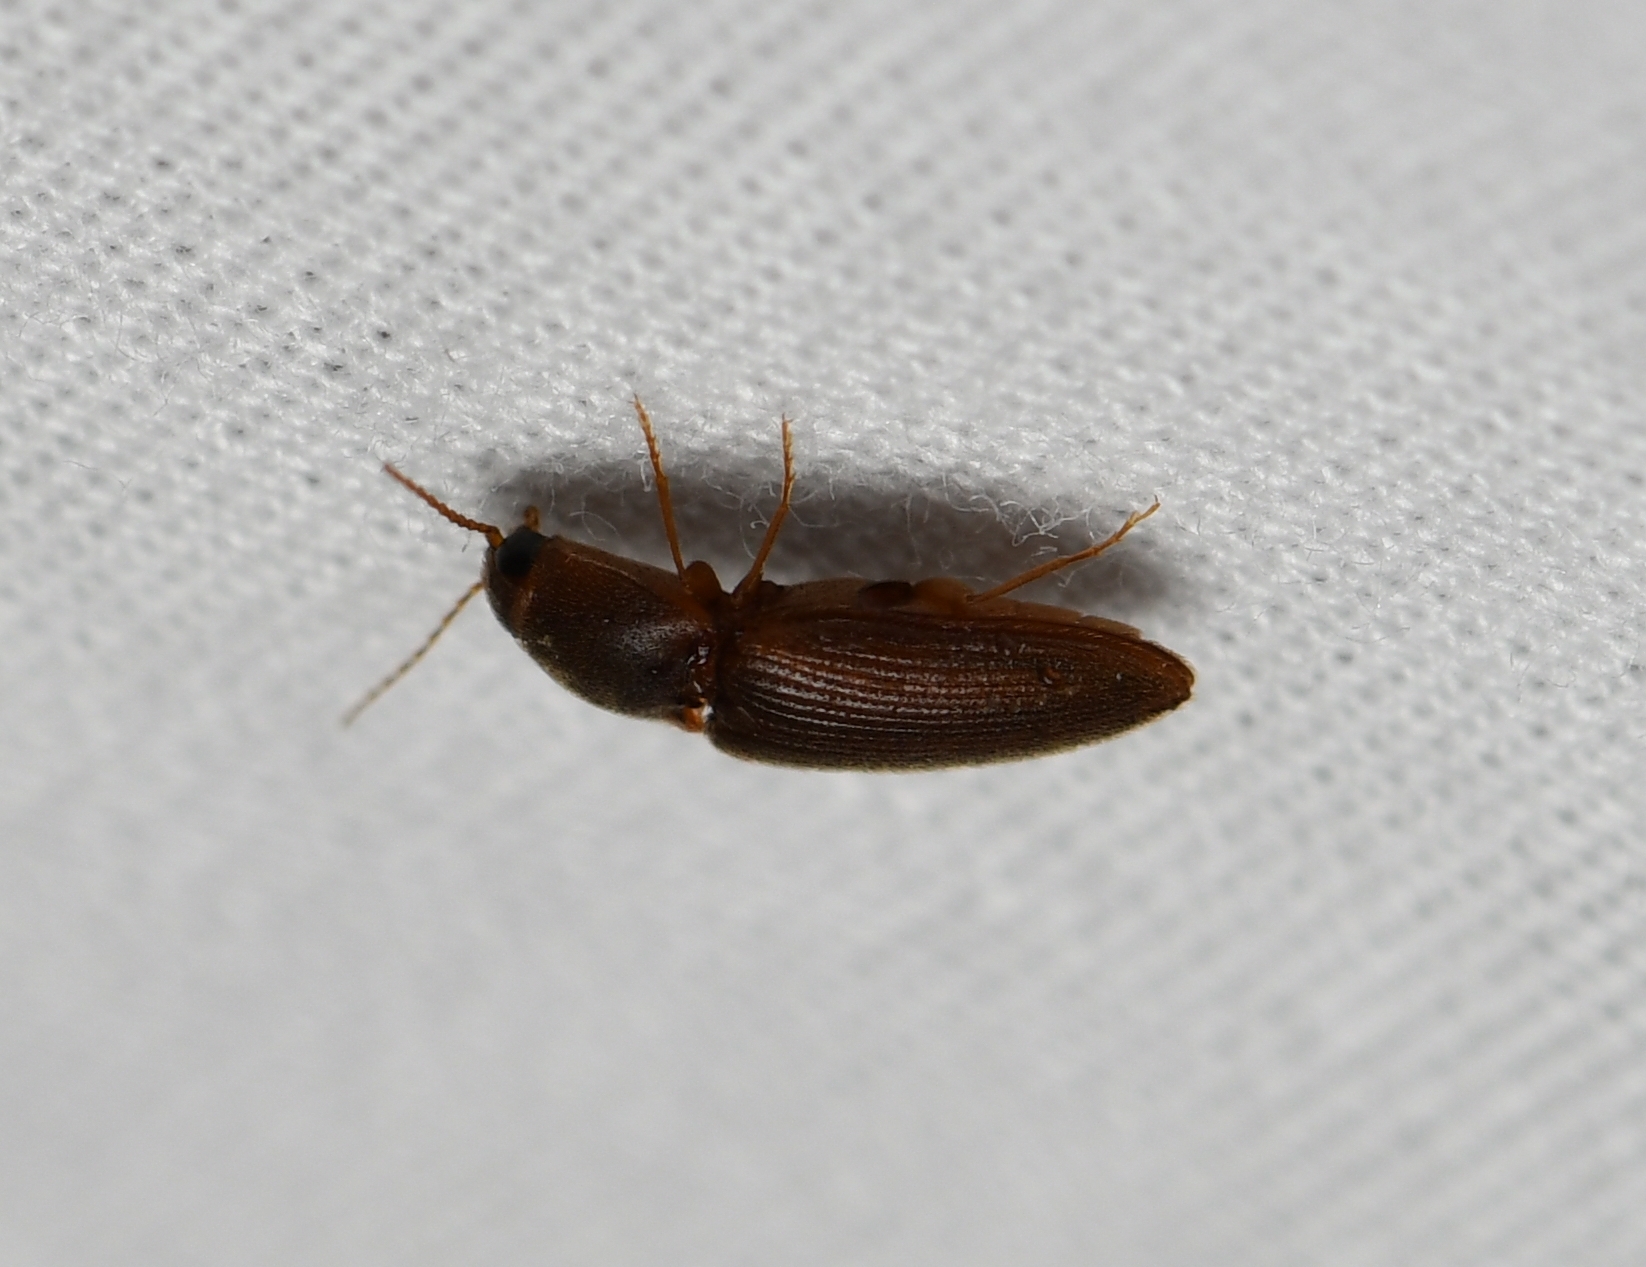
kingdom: Animalia
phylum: Arthropoda
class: Insecta
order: Coleoptera
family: Elateridae
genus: Esthesopus
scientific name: Esthesopus
